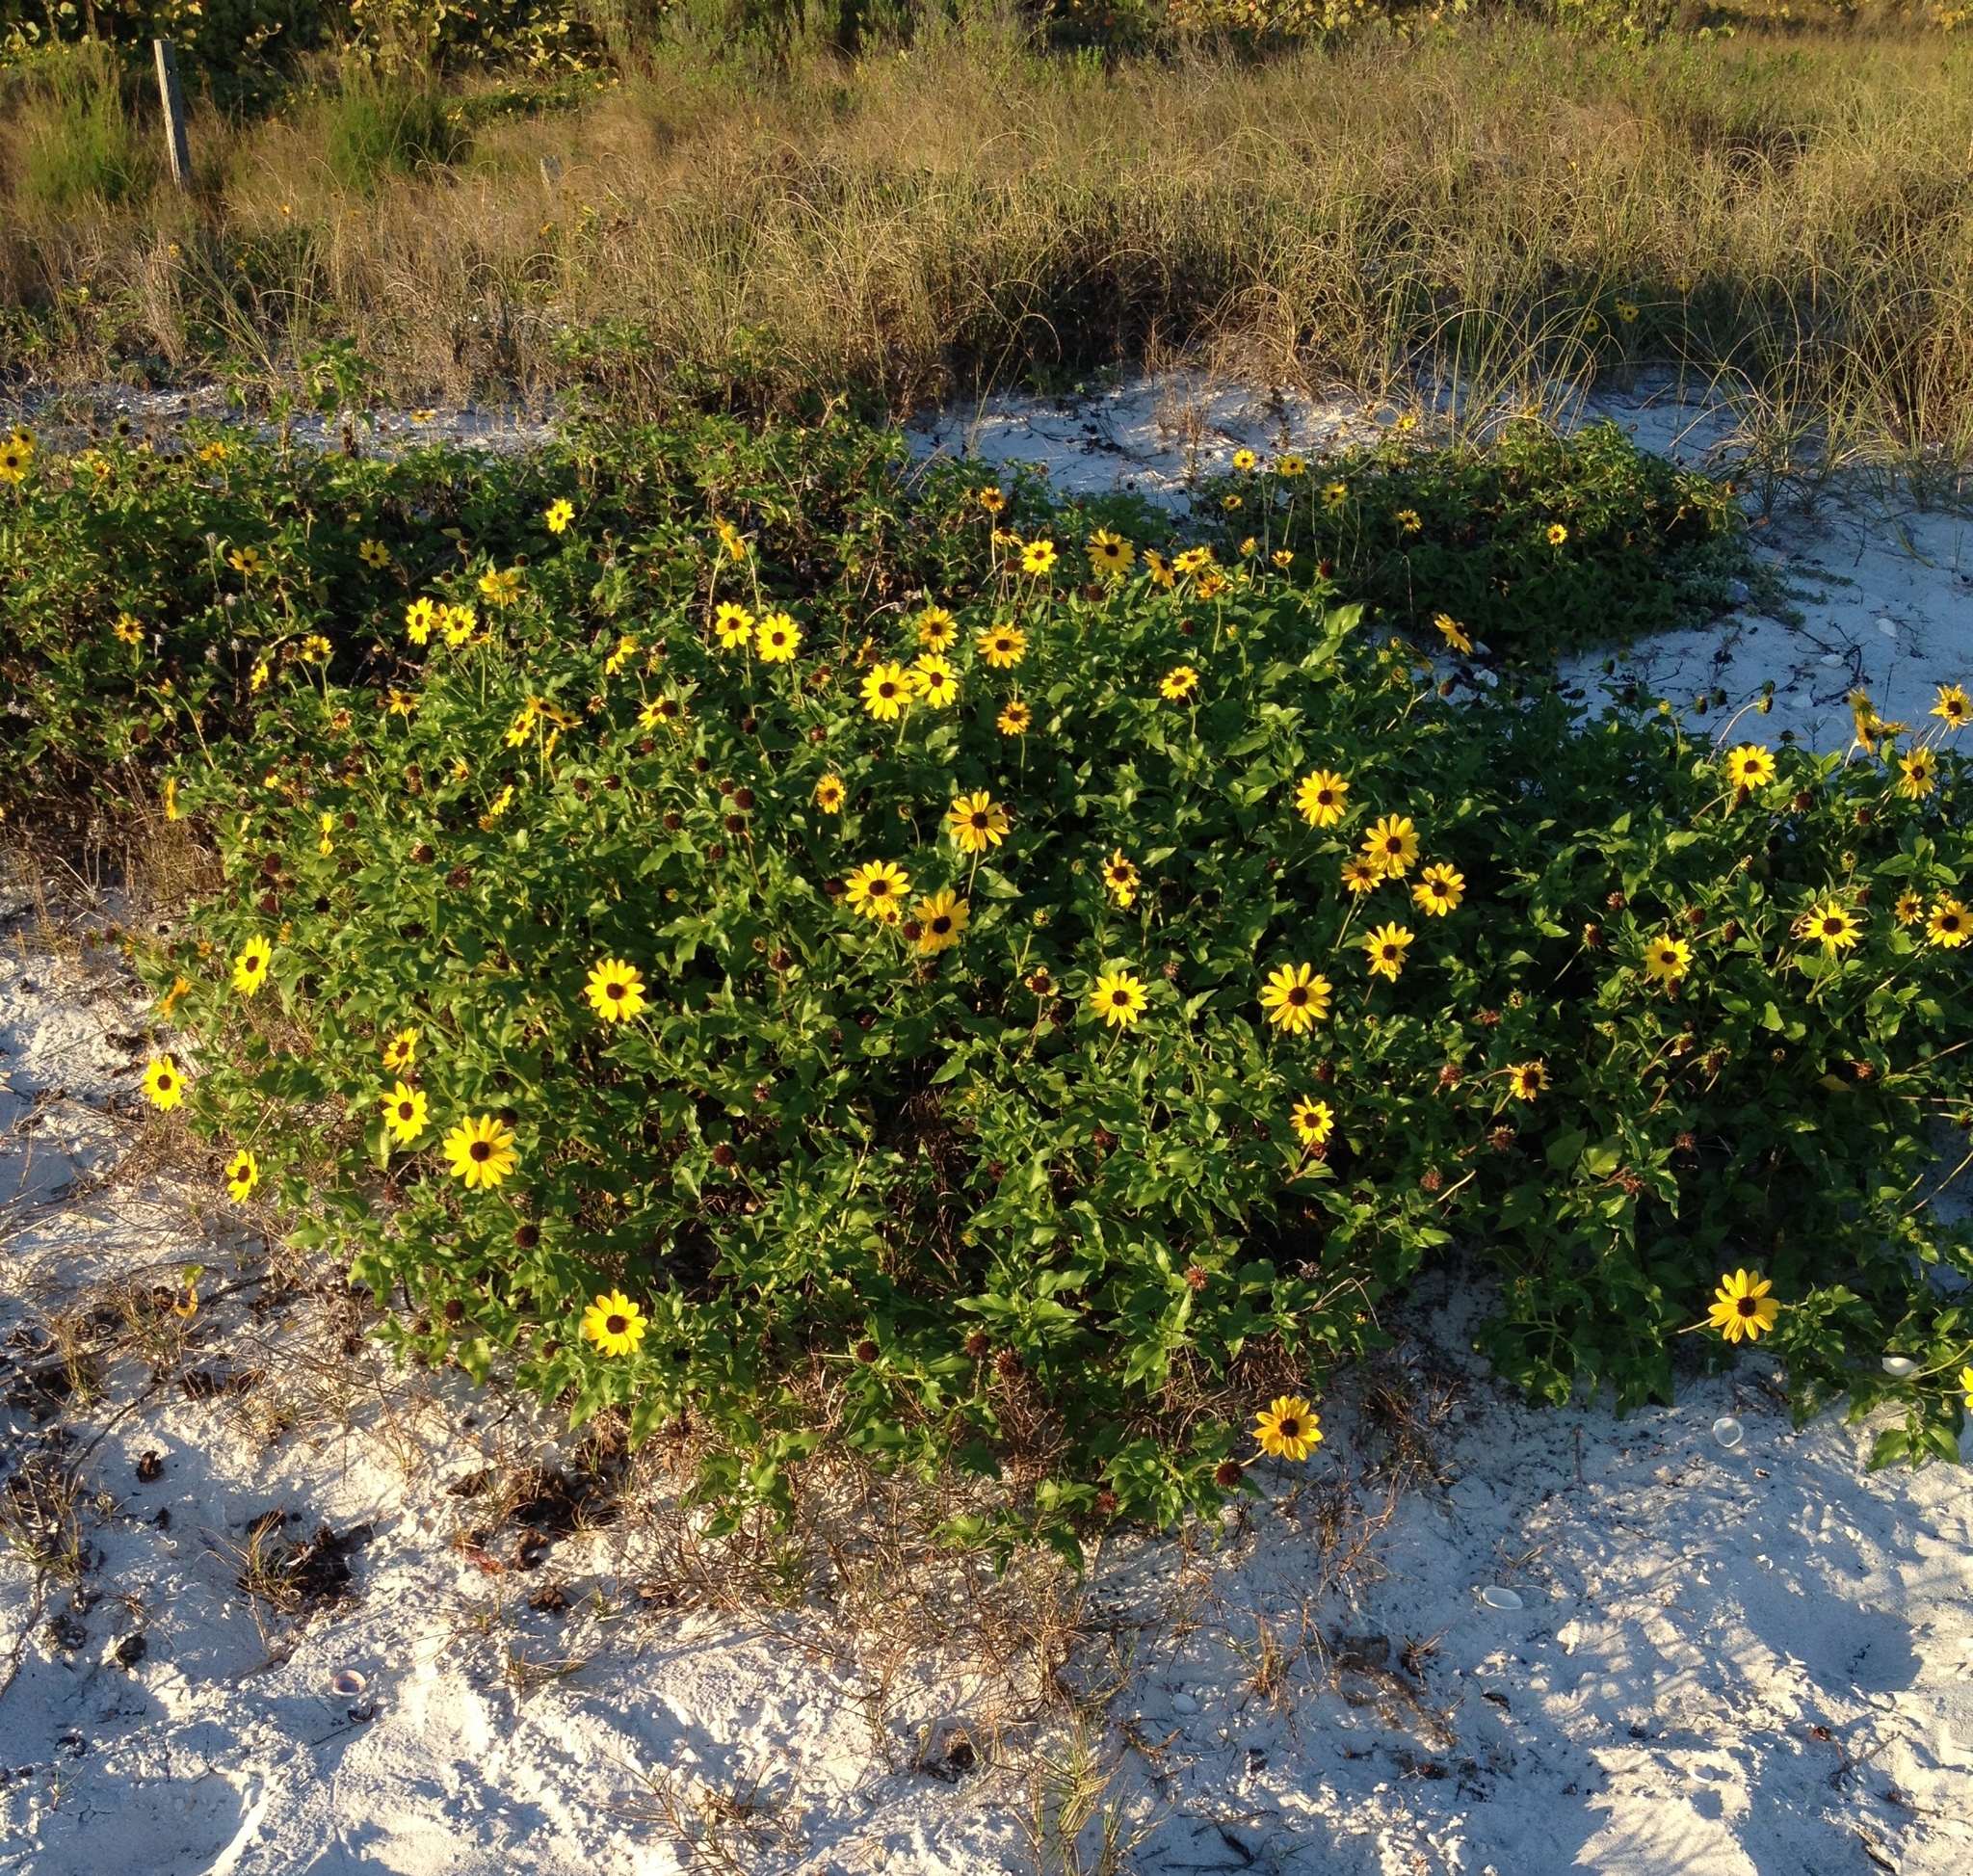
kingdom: Plantae
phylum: Tracheophyta
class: Magnoliopsida
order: Asterales
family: Asteraceae
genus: Helianthus
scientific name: Helianthus debilis
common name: Weak sunflower
